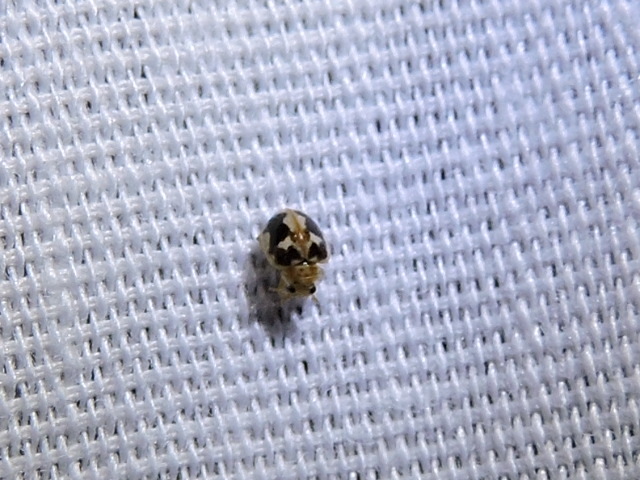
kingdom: Animalia
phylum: Arthropoda
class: Insecta
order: Coleoptera
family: Coccinellidae
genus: Psyllobora
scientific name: Psyllobora renifer
